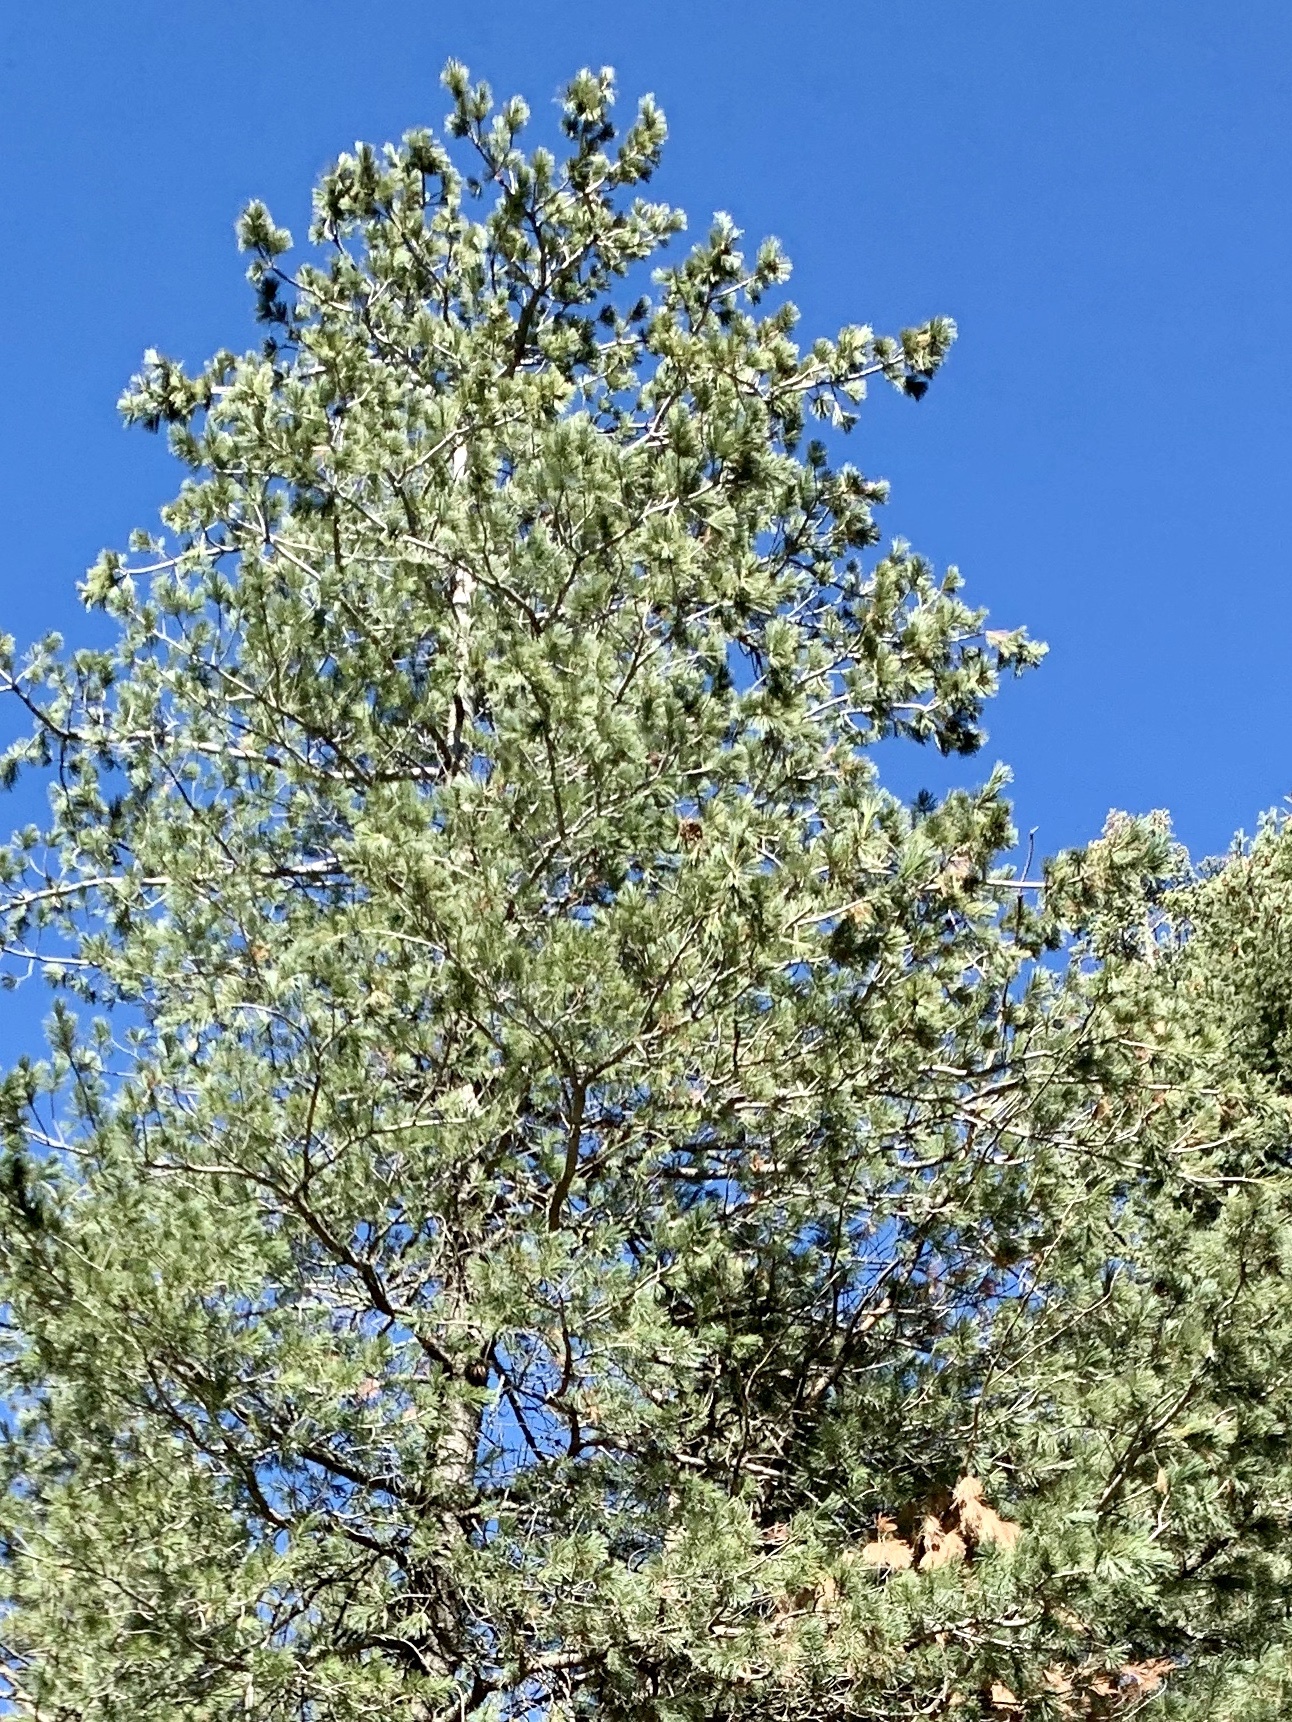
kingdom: Plantae
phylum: Tracheophyta
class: Pinopsida
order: Pinales
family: Pinaceae
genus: Pinus
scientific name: Pinus strobiformis
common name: Southwestern white pine
